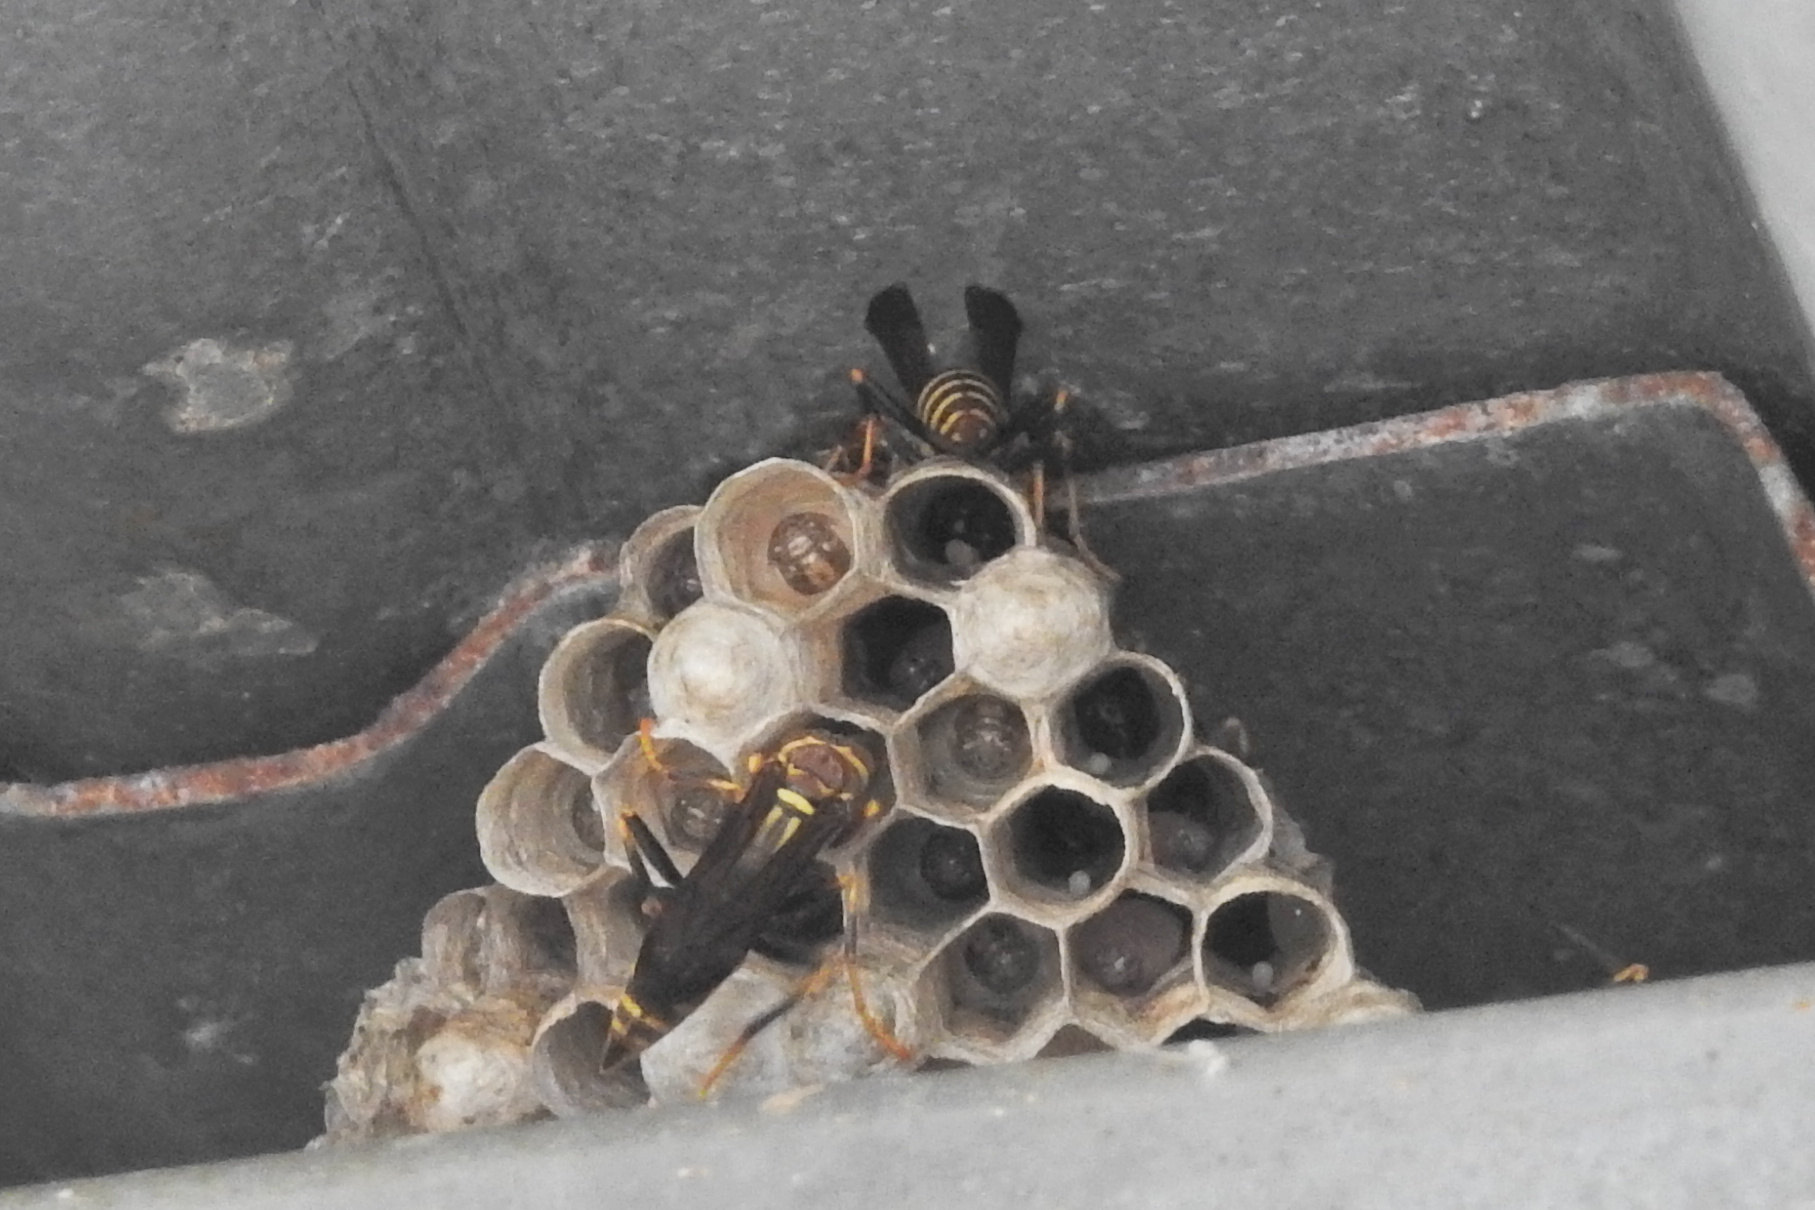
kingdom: Animalia
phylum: Arthropoda
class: Insecta
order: Hymenoptera
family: Eumenidae
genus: Polistes
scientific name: Polistes exclamans
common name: Paper wasp
